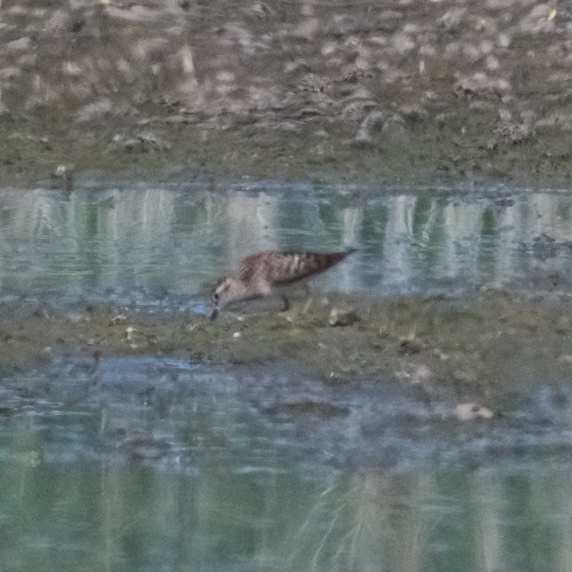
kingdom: Animalia
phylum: Chordata
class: Aves
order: Charadriiformes
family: Scolopacidae
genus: Calidris
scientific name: Calidris minutilla
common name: Least sandpiper
